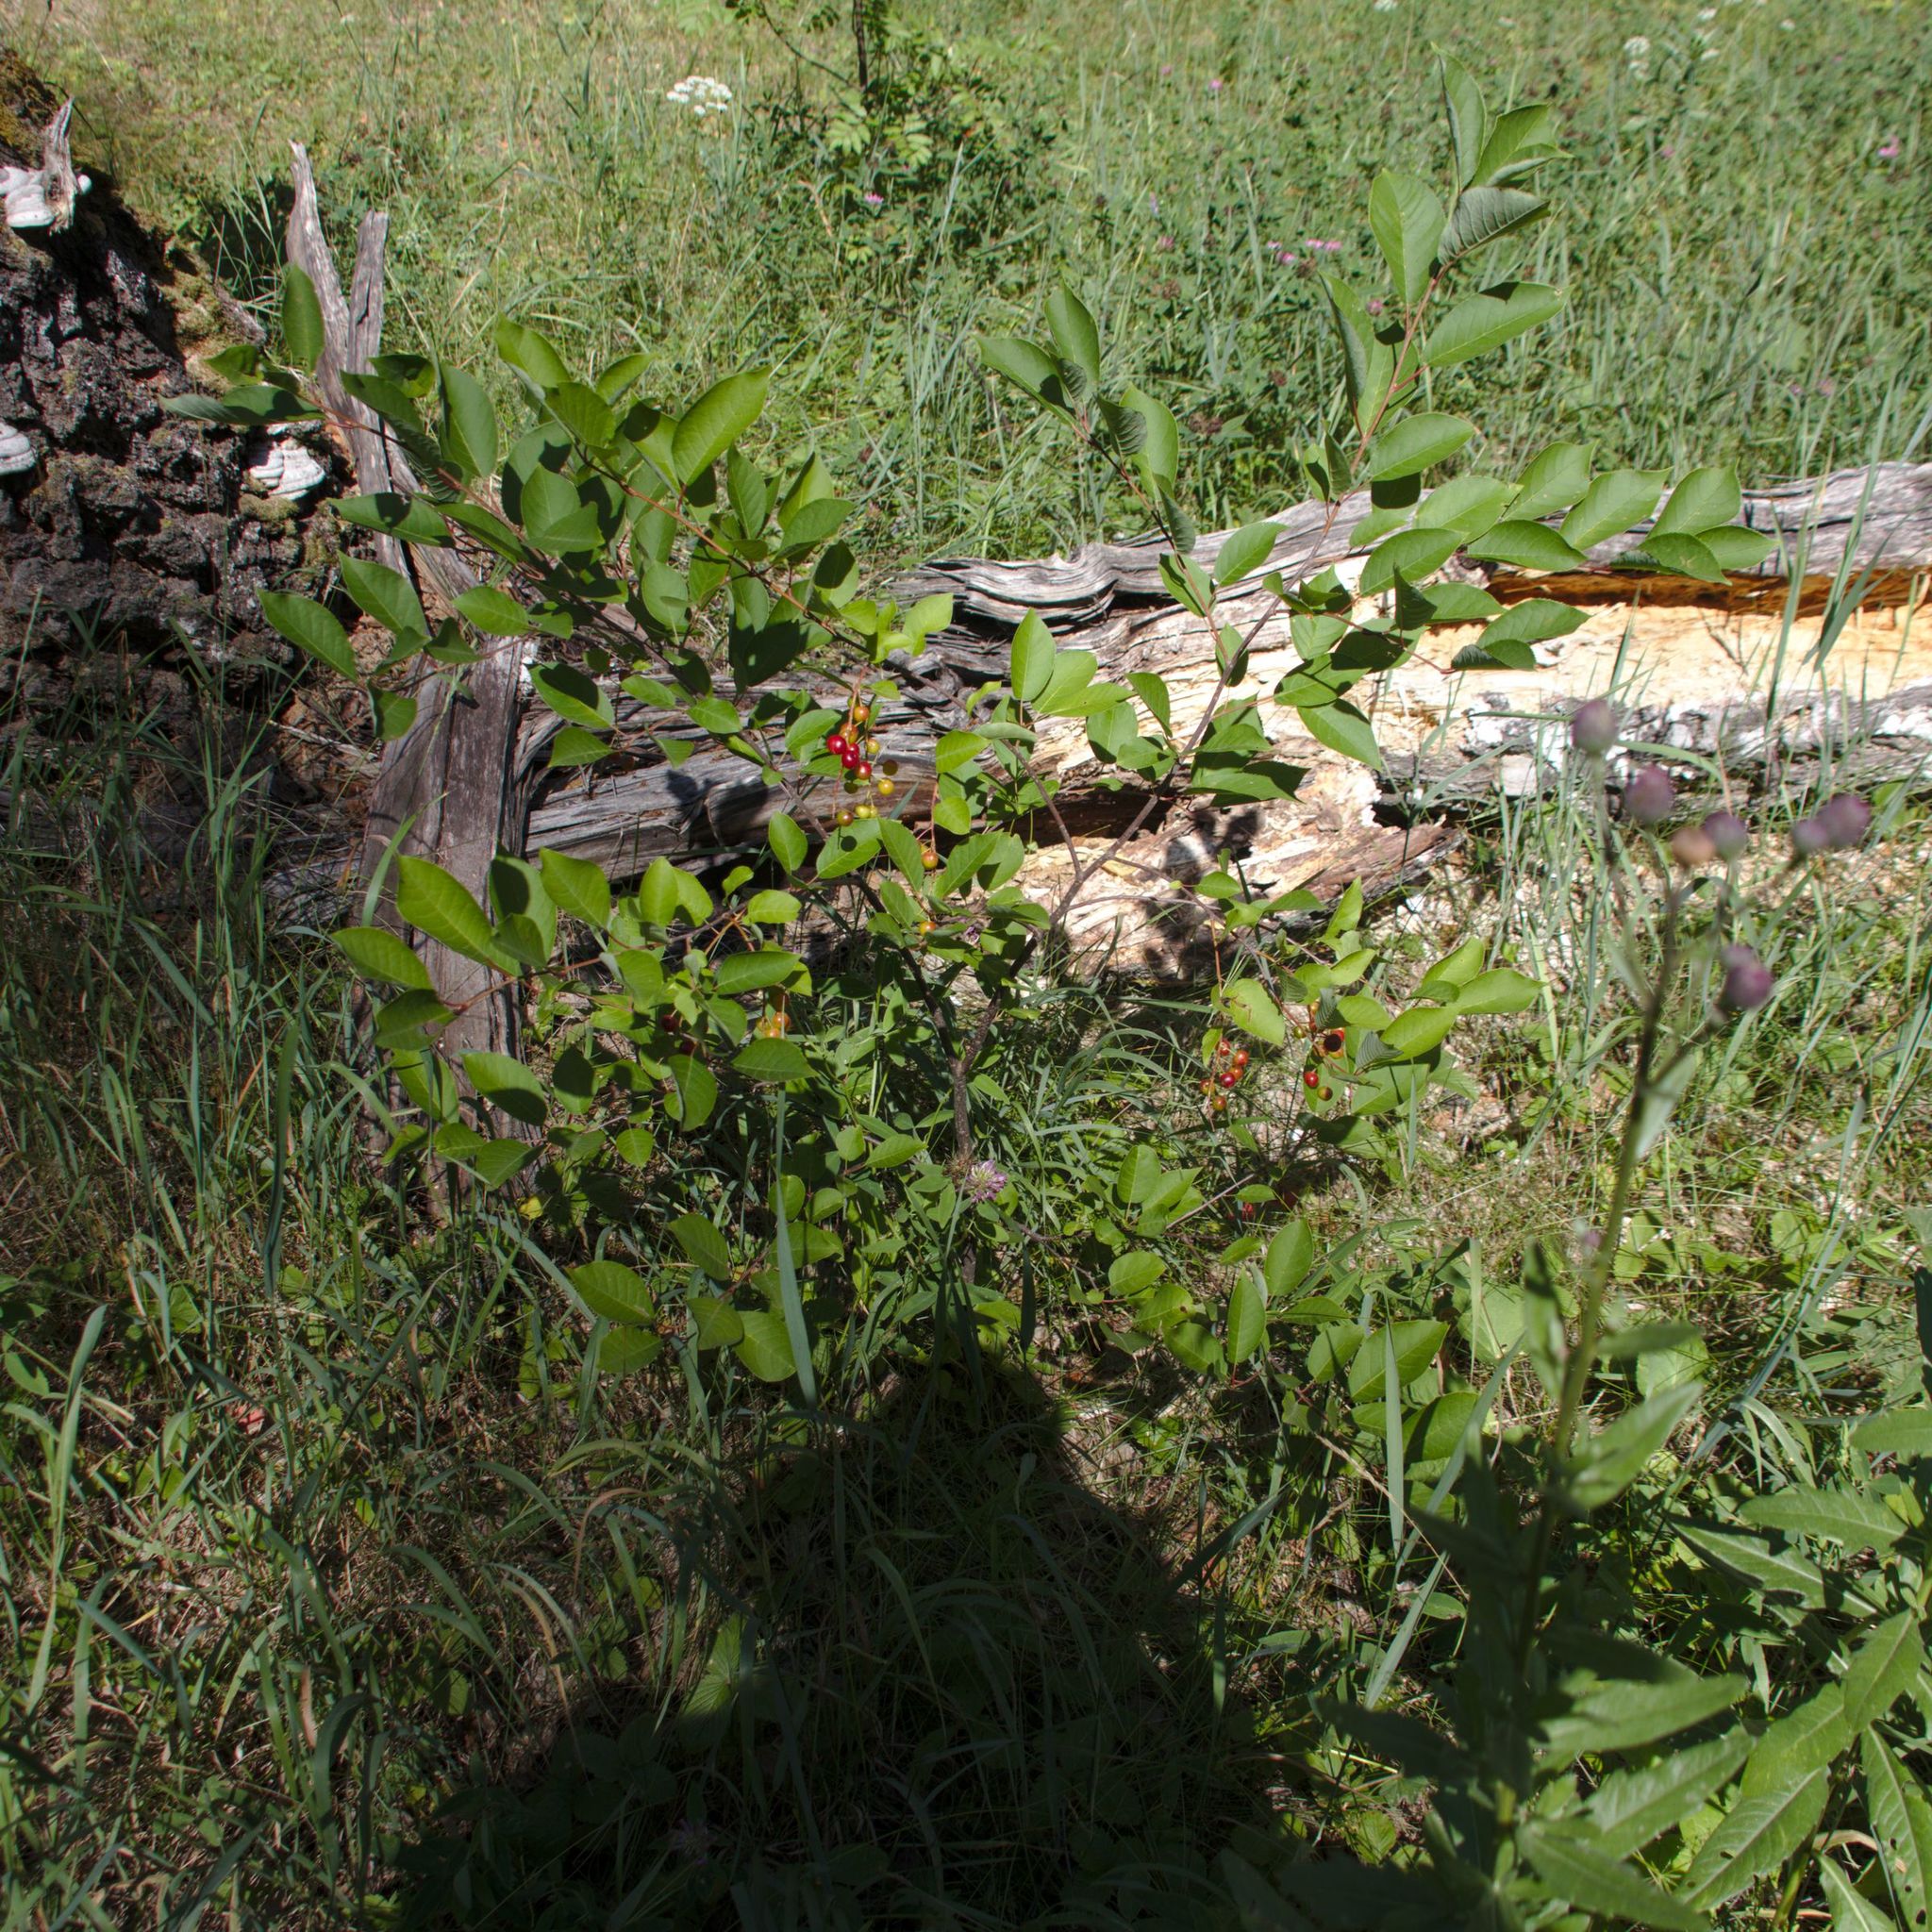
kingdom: Plantae
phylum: Tracheophyta
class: Magnoliopsida
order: Rosales
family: Rosaceae
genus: Prunus
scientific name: Prunus virginiana
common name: Chokecherry
